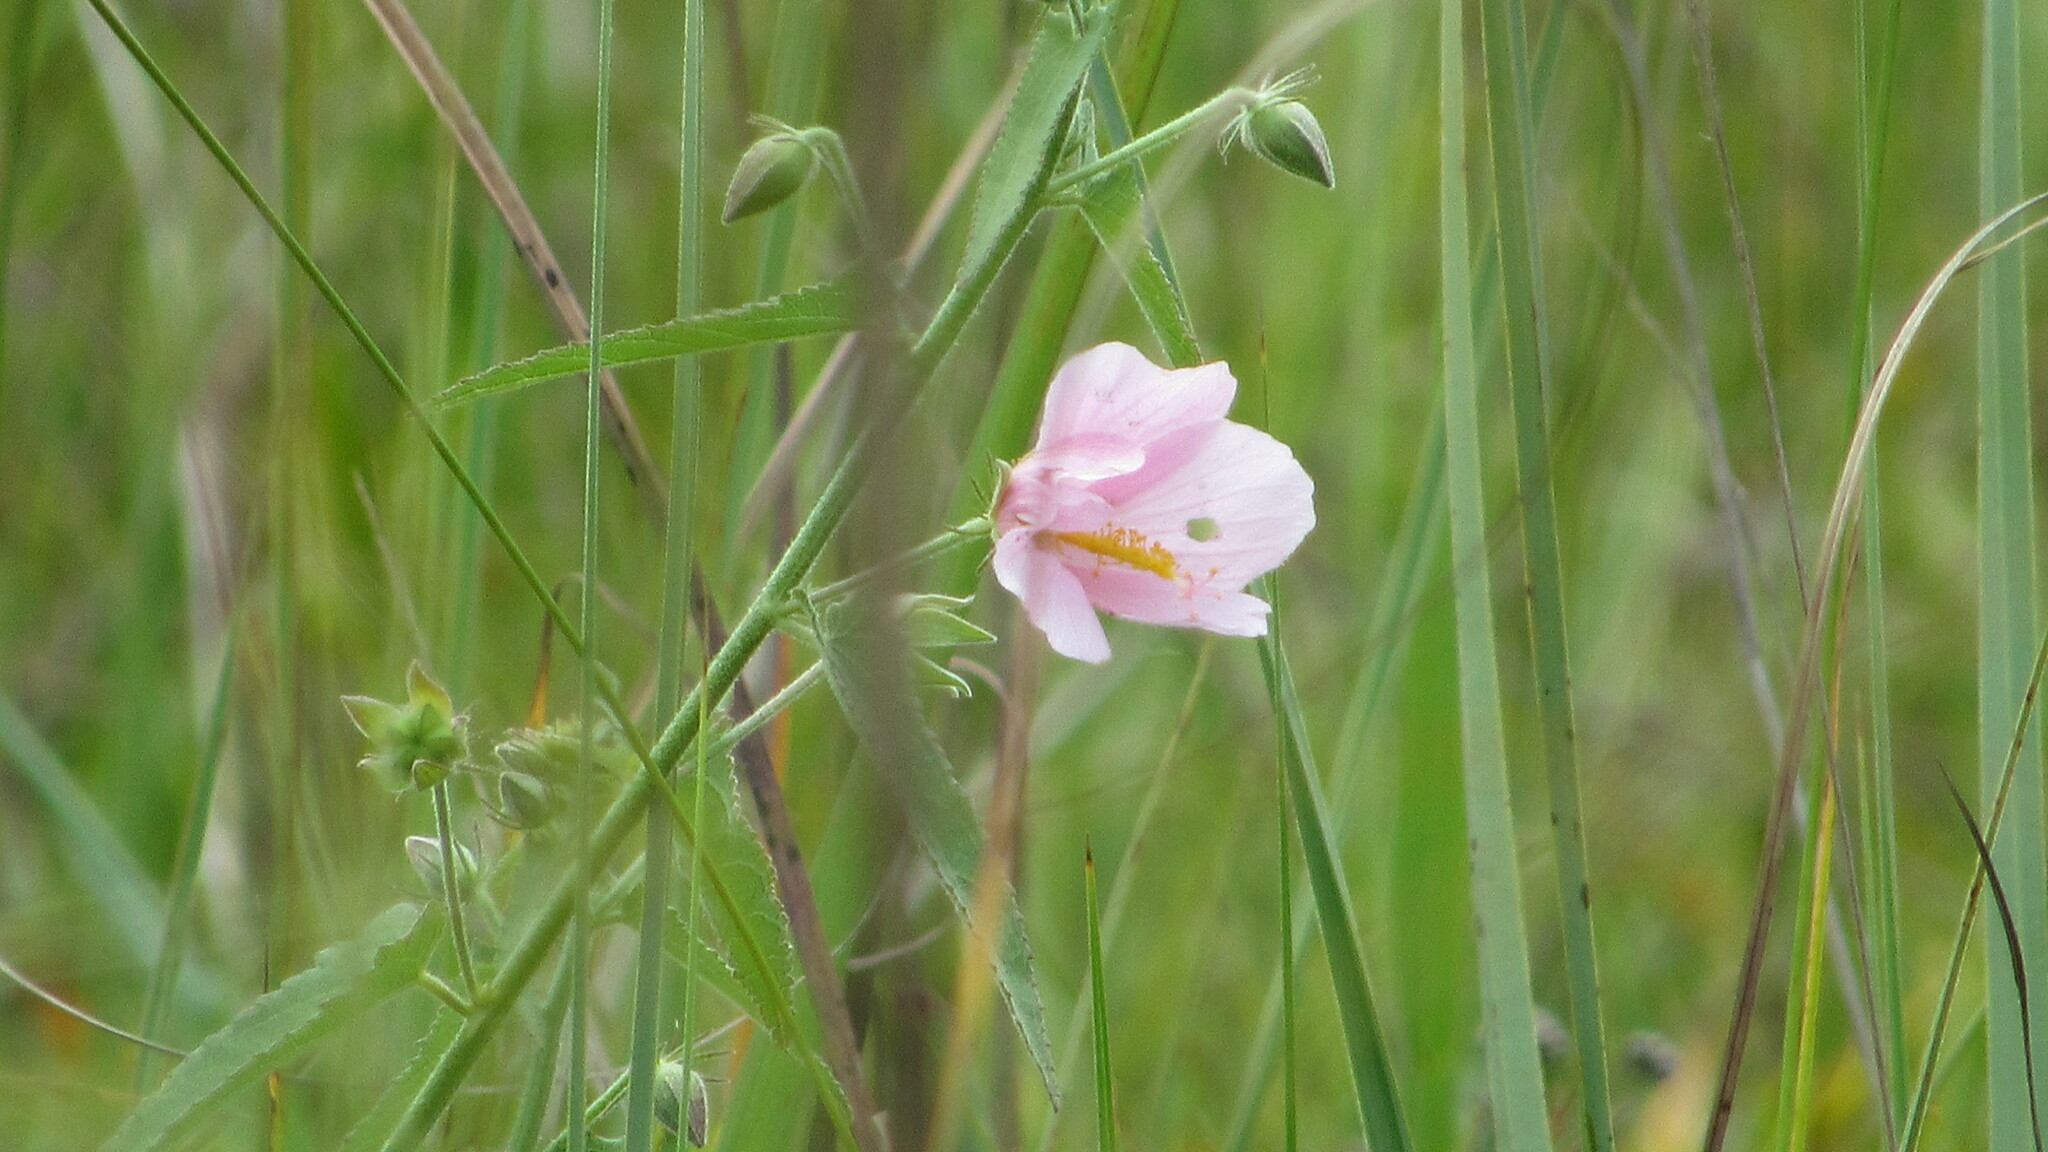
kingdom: Plantae
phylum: Tracheophyta
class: Magnoliopsida
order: Malvales
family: Malvaceae
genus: Kosteletzkya
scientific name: Kosteletzkya pentacarpos
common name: Virginia saltmarsh mallow
